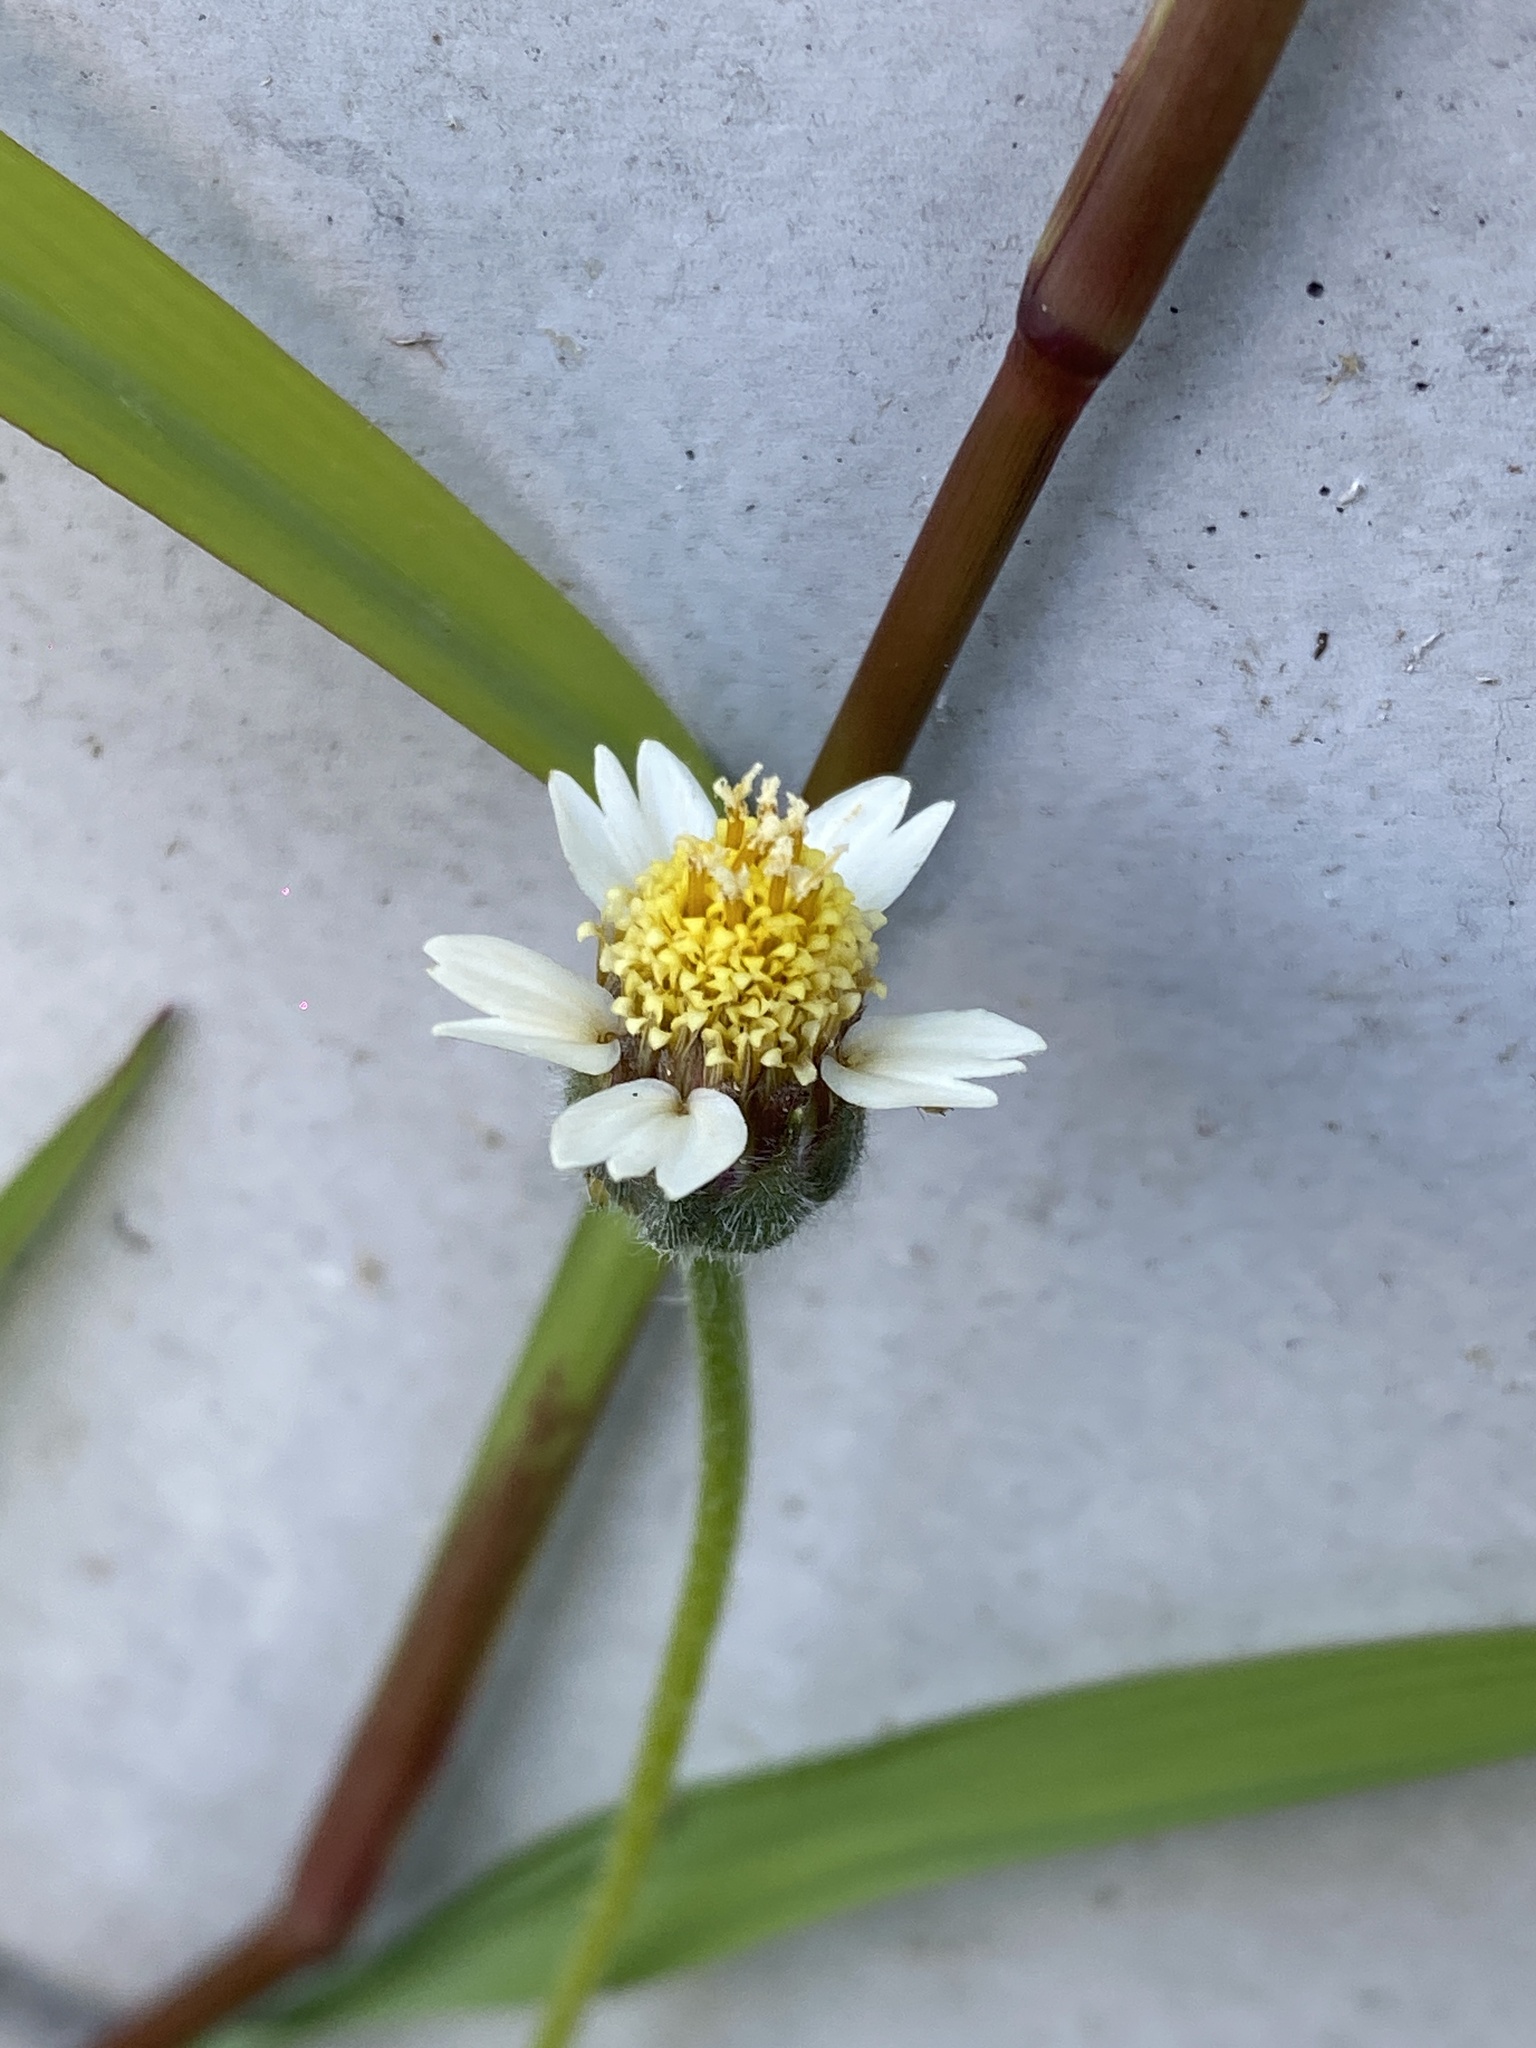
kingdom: Plantae
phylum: Tracheophyta
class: Magnoliopsida
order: Asterales
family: Asteraceae
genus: Tridax
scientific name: Tridax procumbens
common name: Coatbuttons
